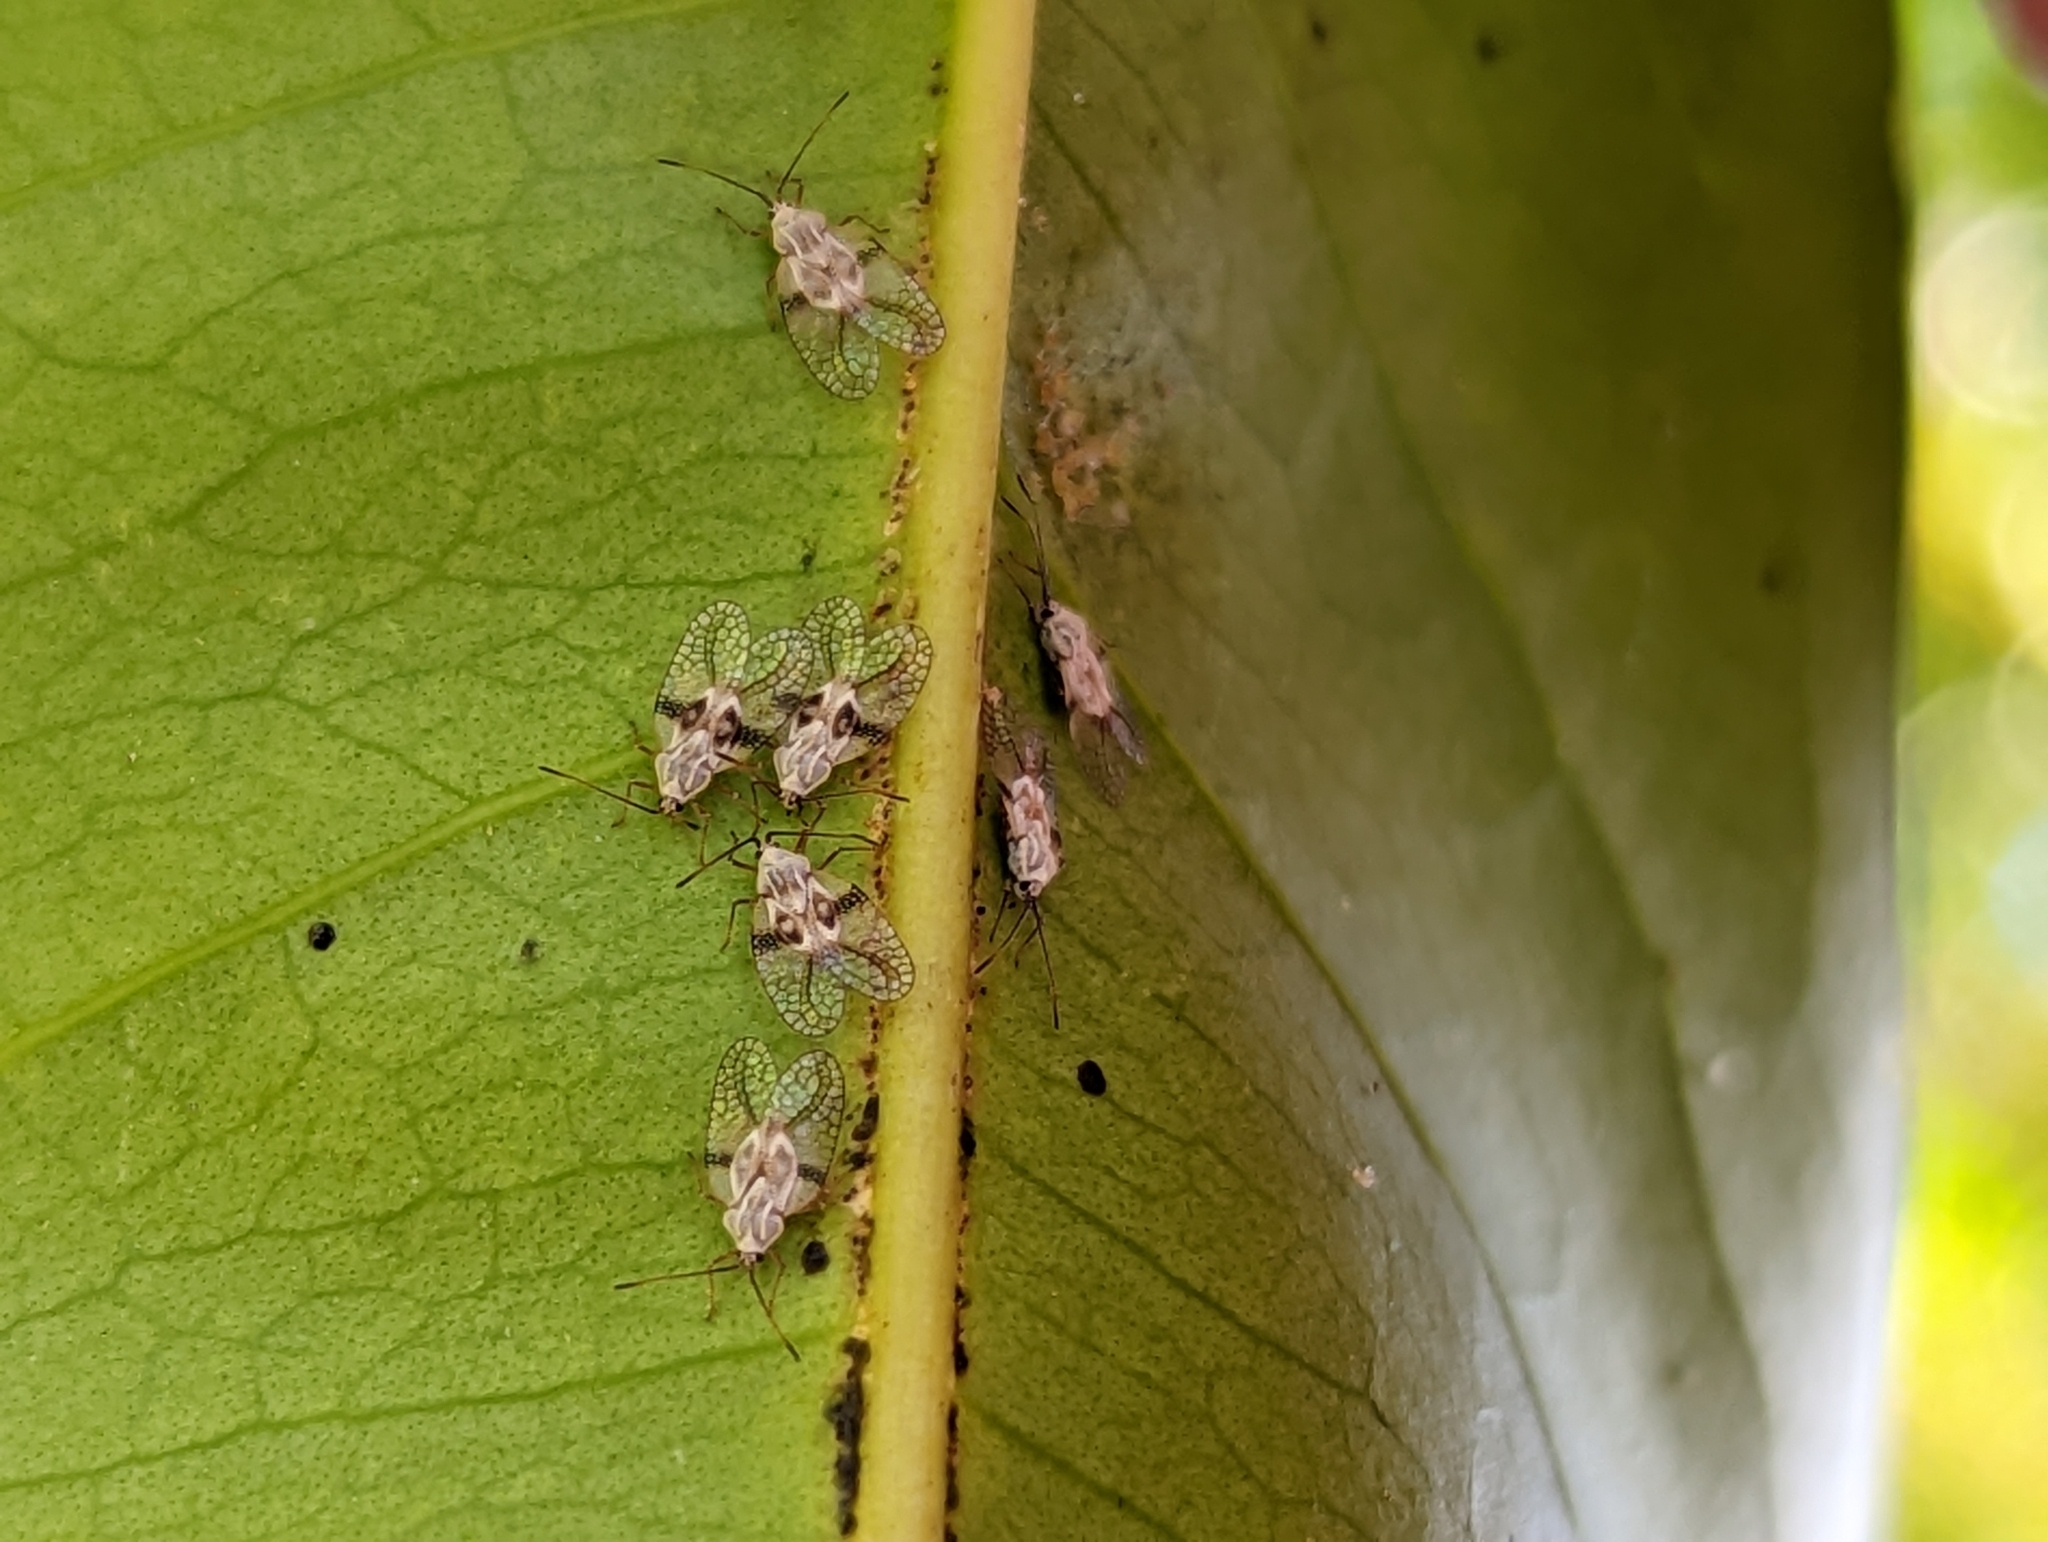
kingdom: Animalia
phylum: Arthropoda
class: Insecta
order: Hemiptera
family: Tingidae
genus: Tanybyrsa
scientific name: Tanybyrsa ampliata
